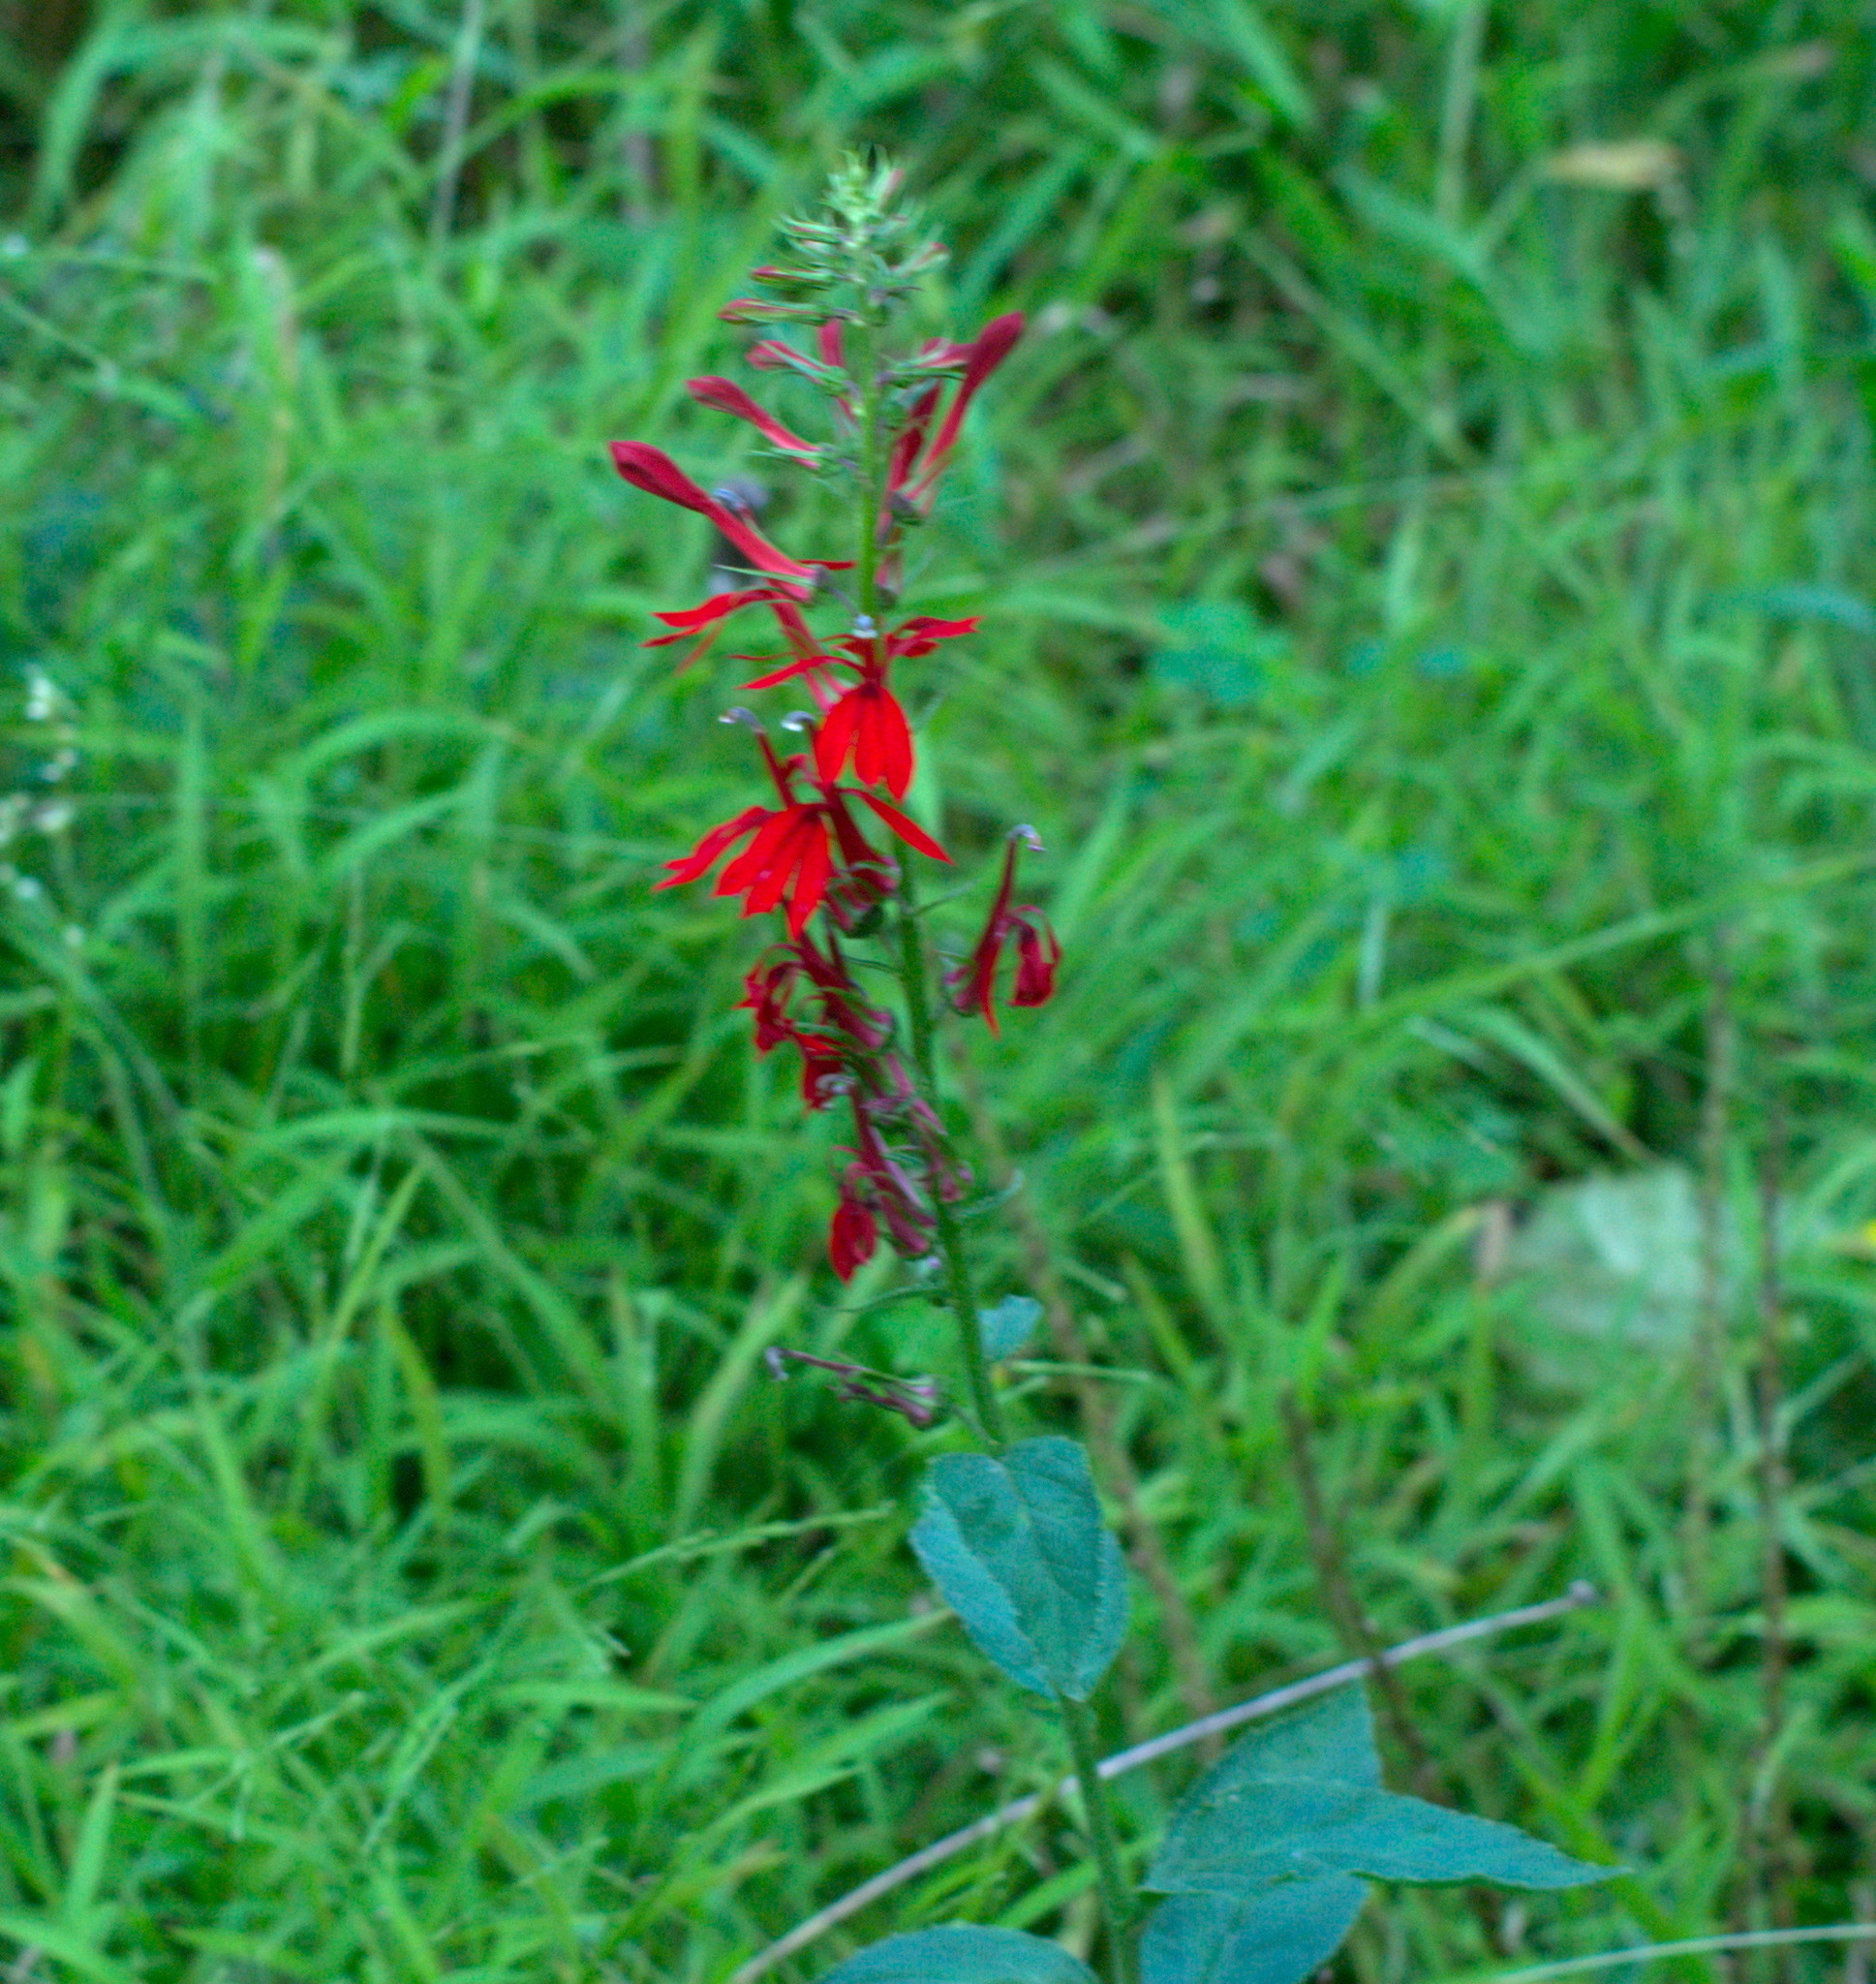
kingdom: Plantae
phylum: Tracheophyta
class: Magnoliopsida
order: Asterales
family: Campanulaceae
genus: Lobelia
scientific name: Lobelia cardinalis
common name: Cardinal flower
